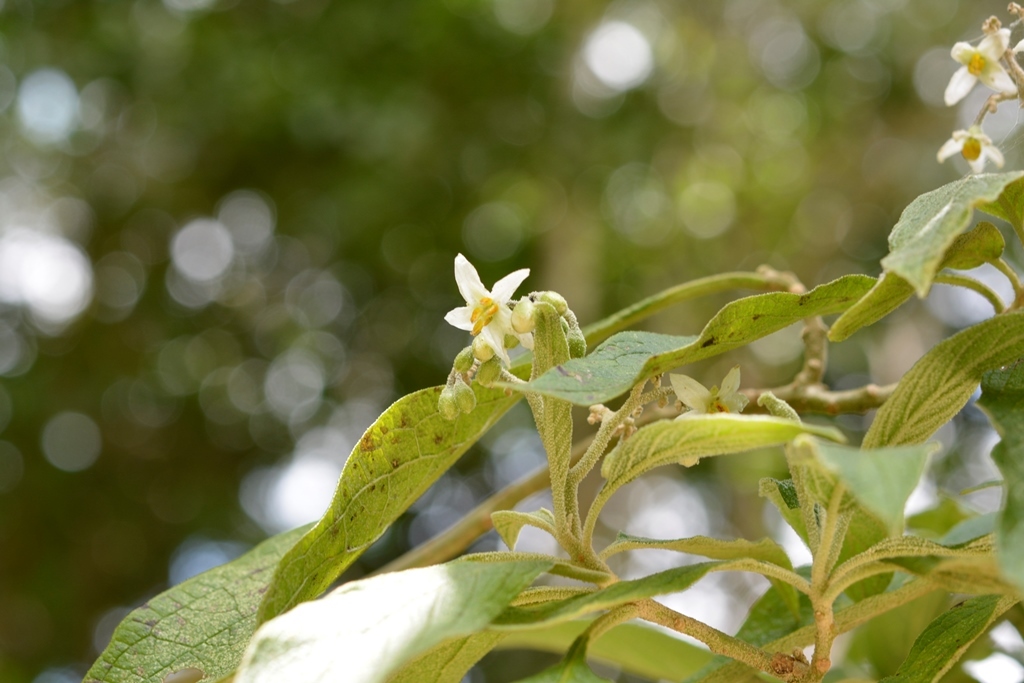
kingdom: Plantae
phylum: Tracheophyta
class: Magnoliopsida
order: Solanales
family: Solanaceae
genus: Solanum
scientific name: Solanum chiapasense
